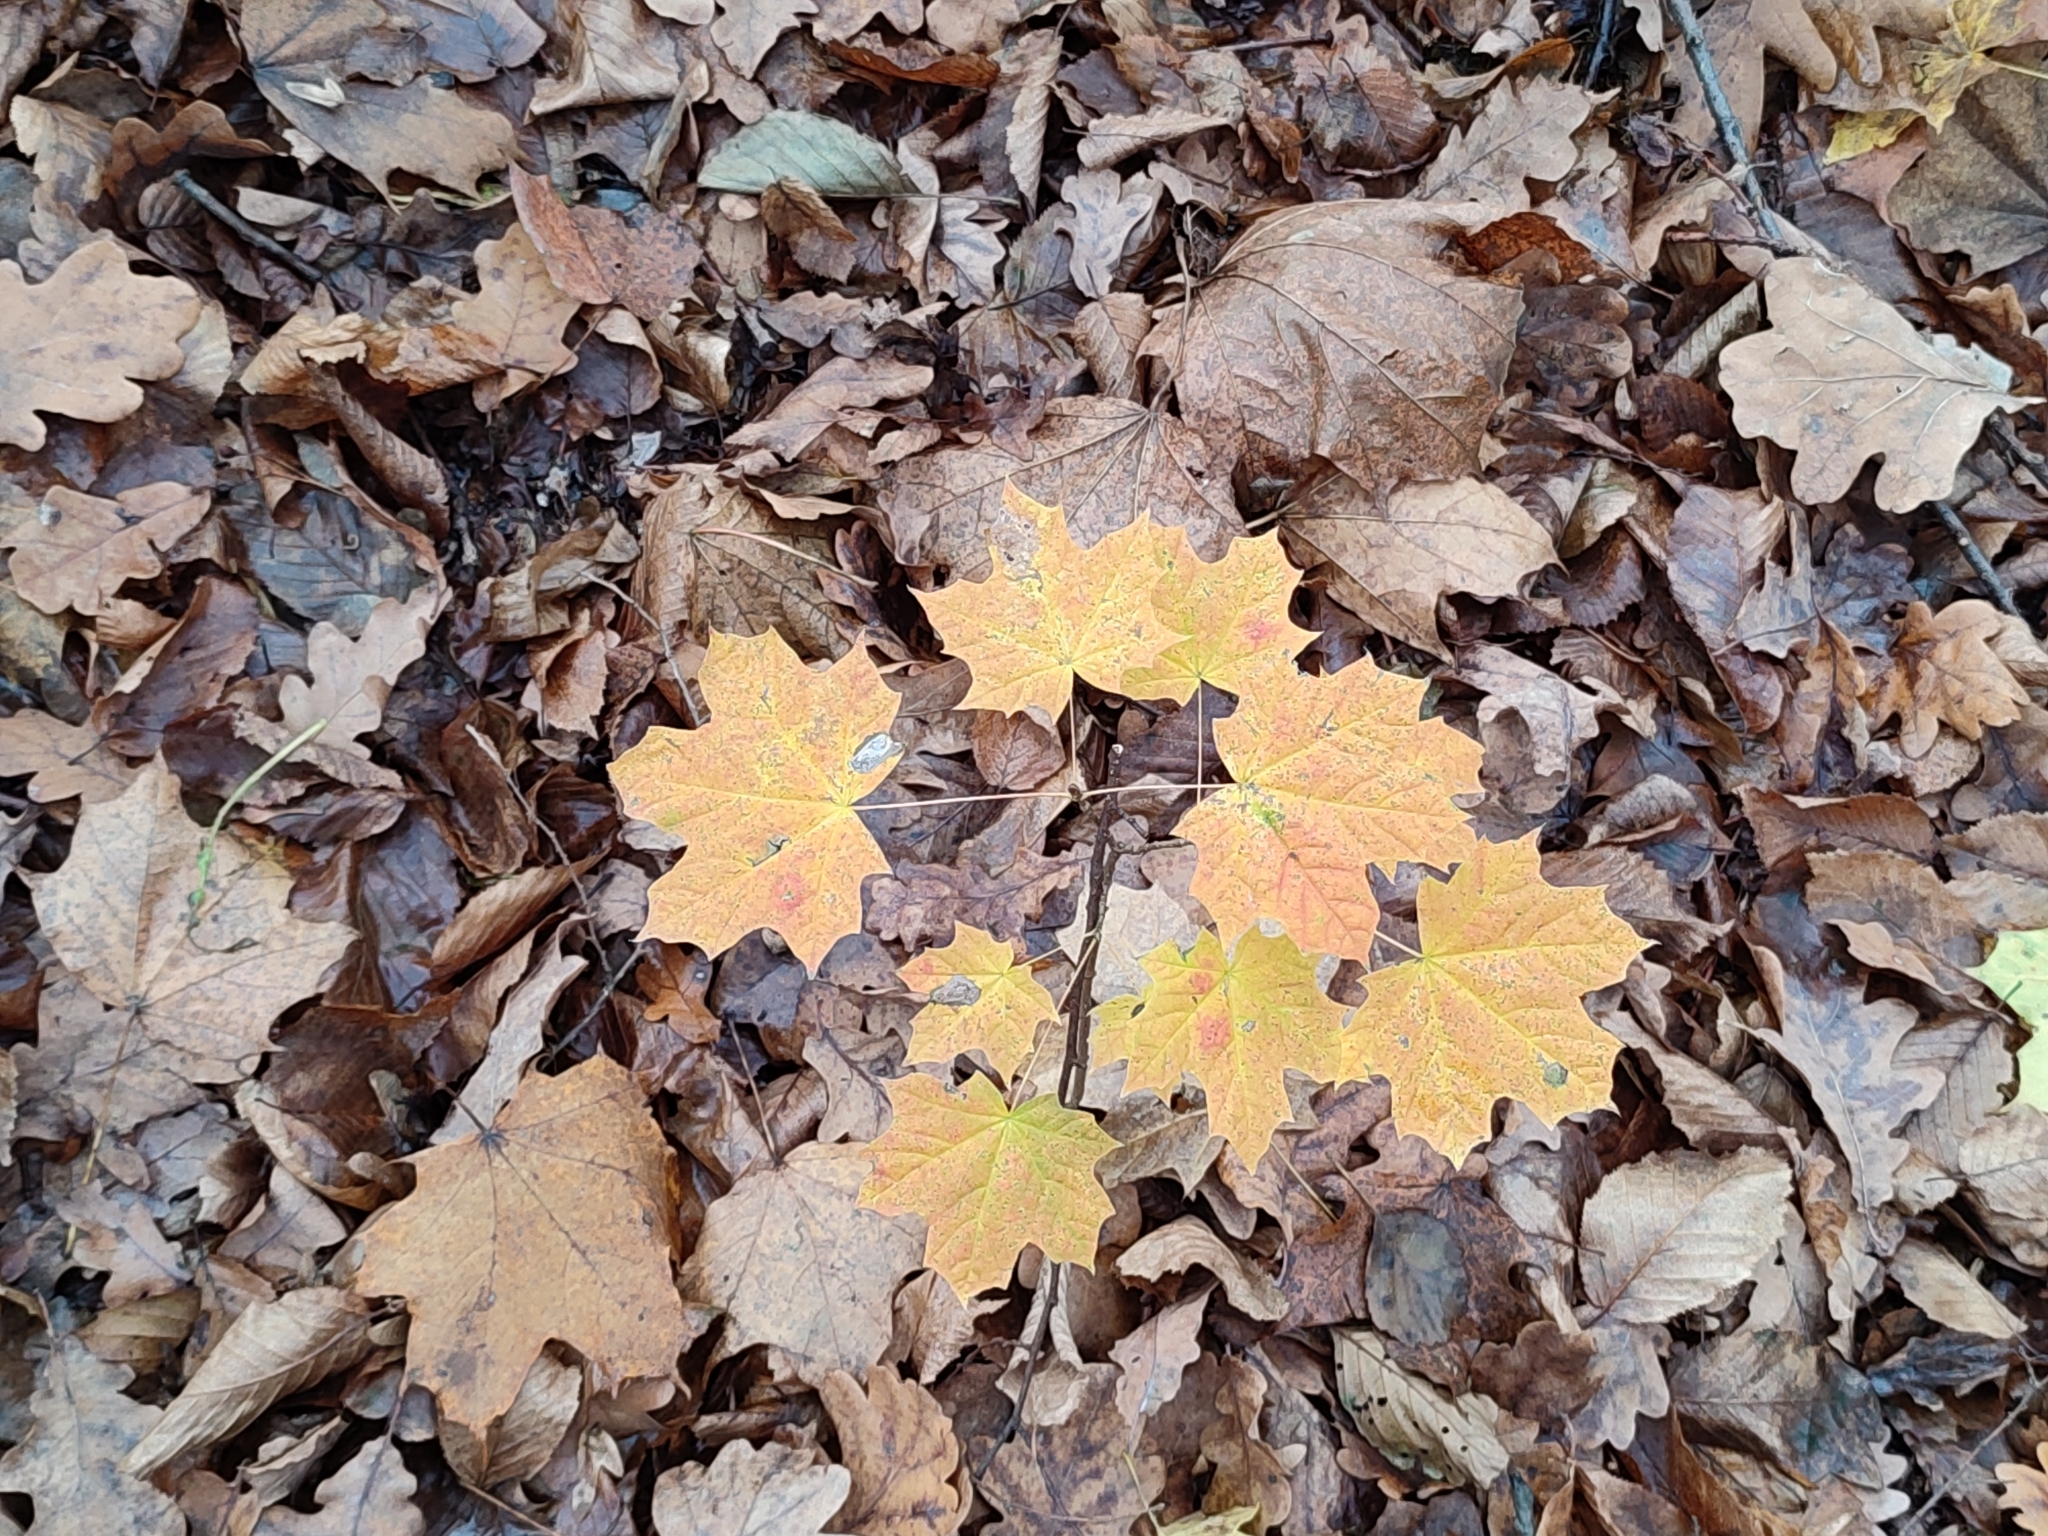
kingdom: Plantae
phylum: Tracheophyta
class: Magnoliopsida
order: Sapindales
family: Sapindaceae
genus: Acer
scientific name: Acer platanoides
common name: Norway maple
